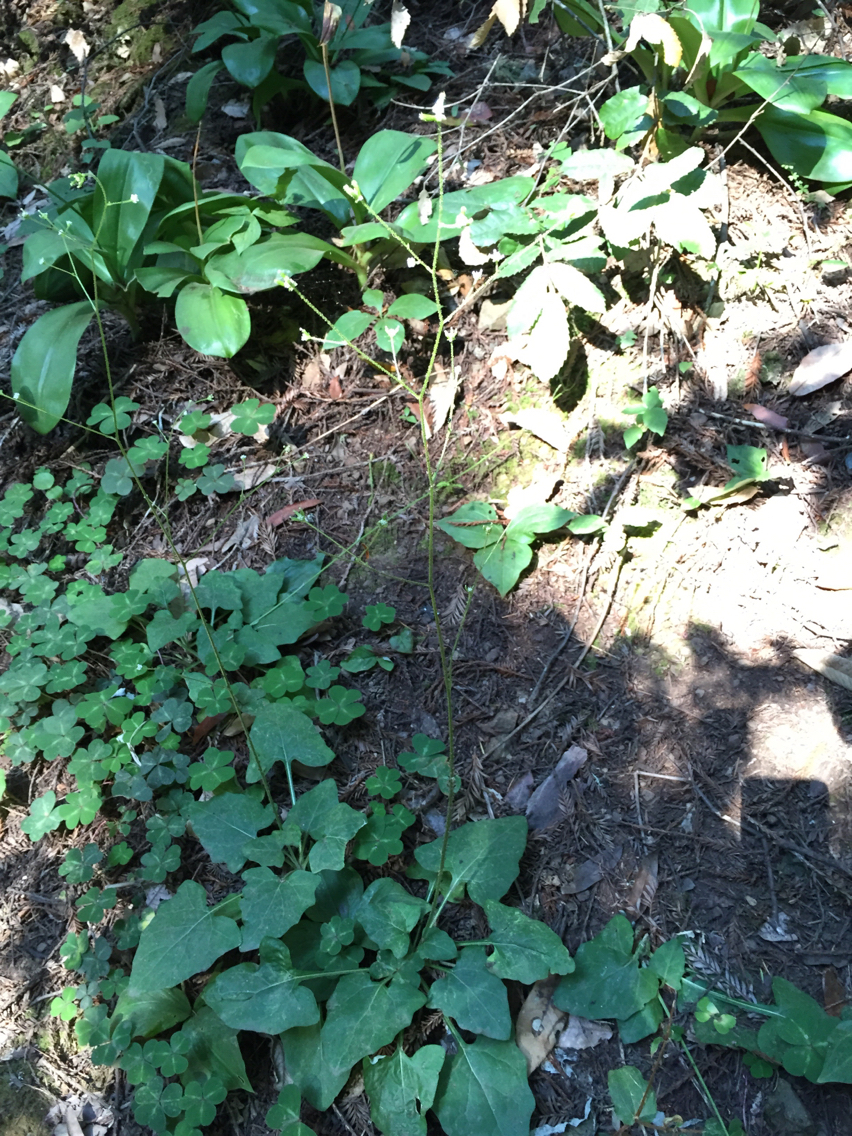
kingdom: Plantae
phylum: Tracheophyta
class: Magnoliopsida
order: Asterales
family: Asteraceae
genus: Adenocaulon
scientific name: Adenocaulon bicolor
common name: Trailplant
